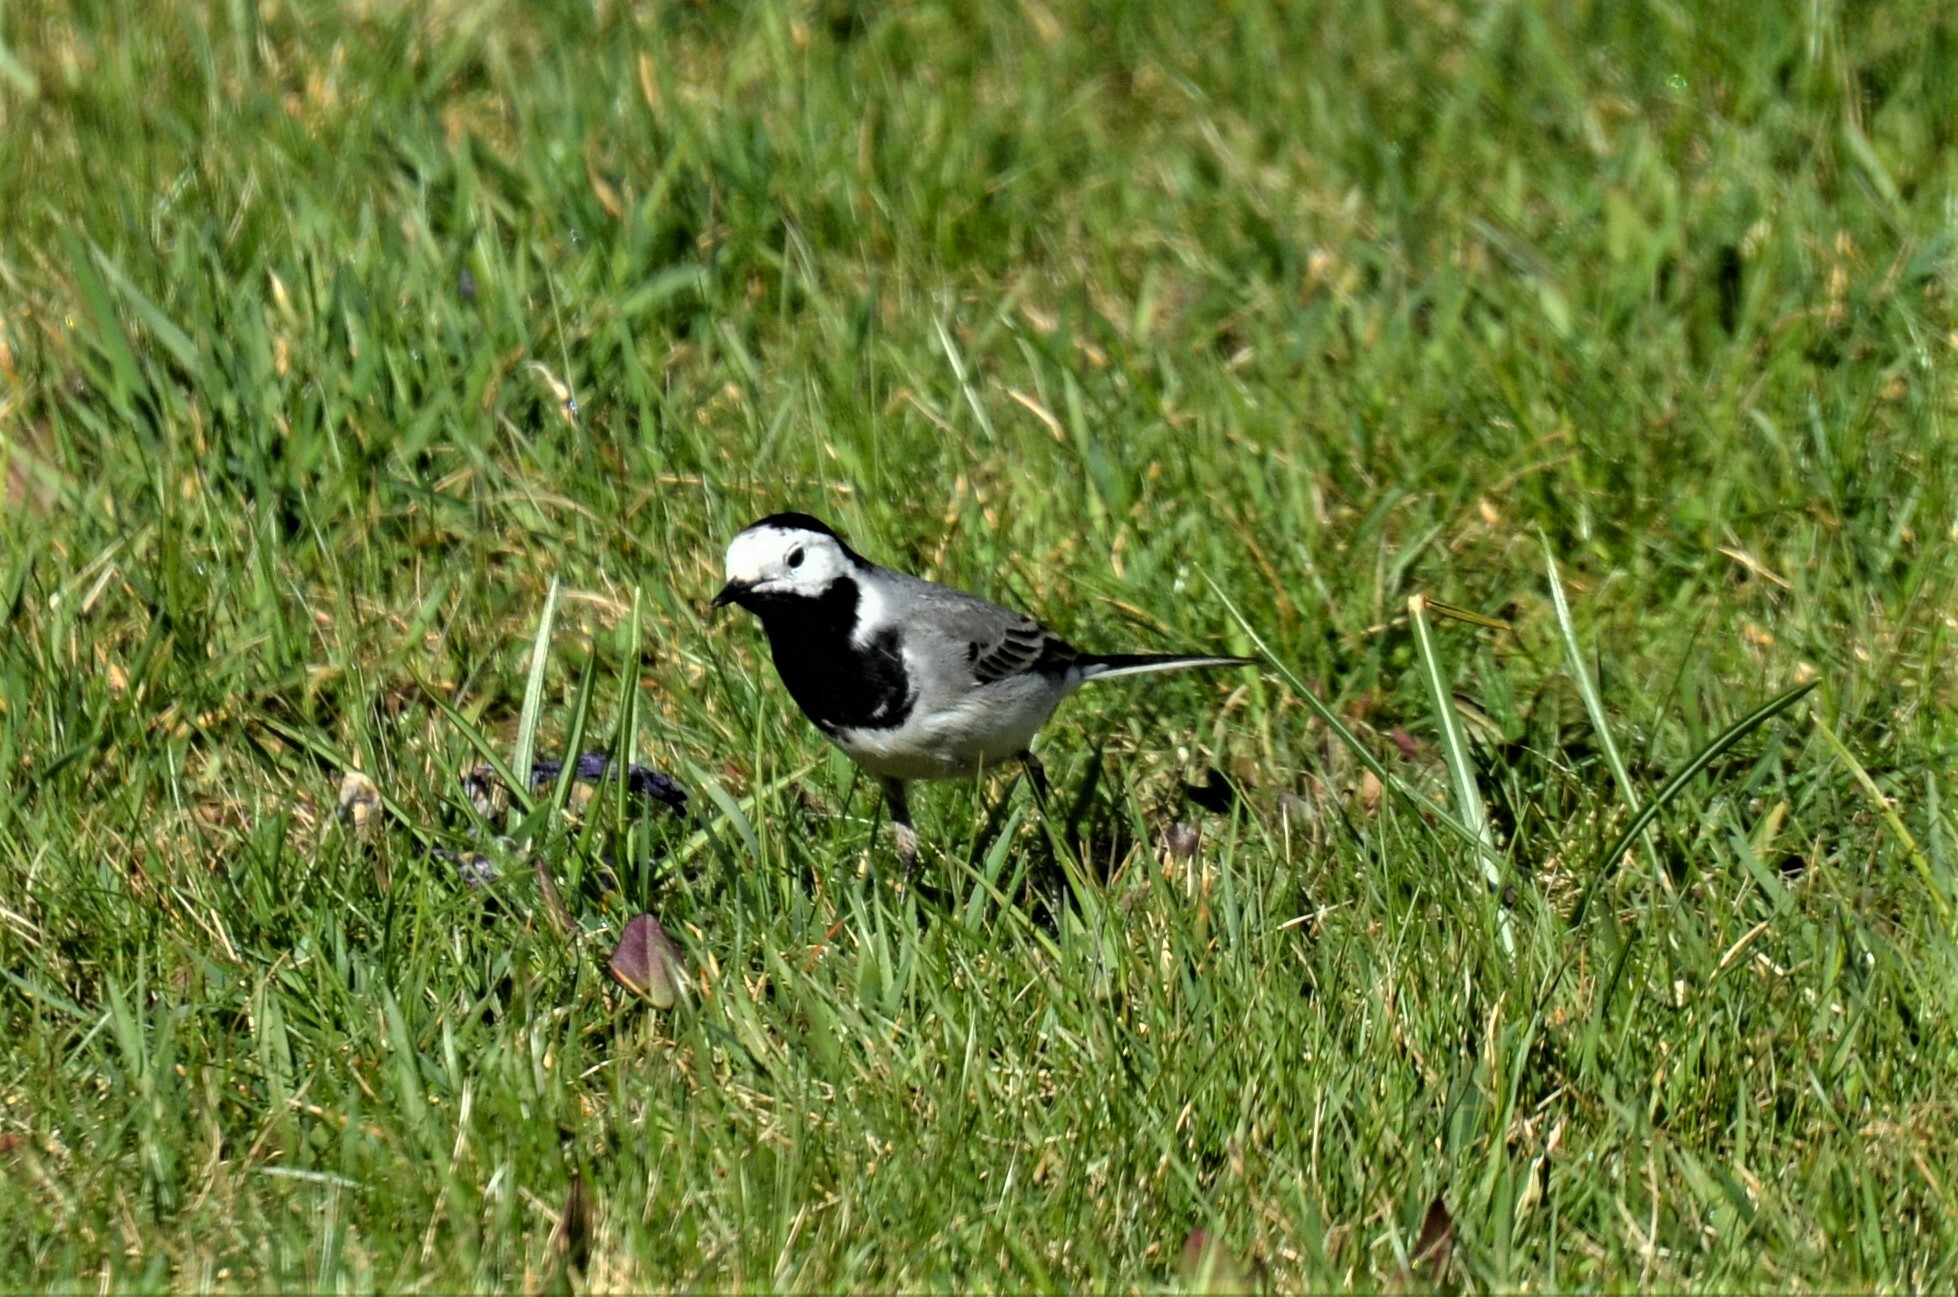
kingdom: Animalia
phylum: Chordata
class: Aves
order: Passeriformes
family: Motacillidae
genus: Motacilla
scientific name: Motacilla alba
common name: White wagtail
